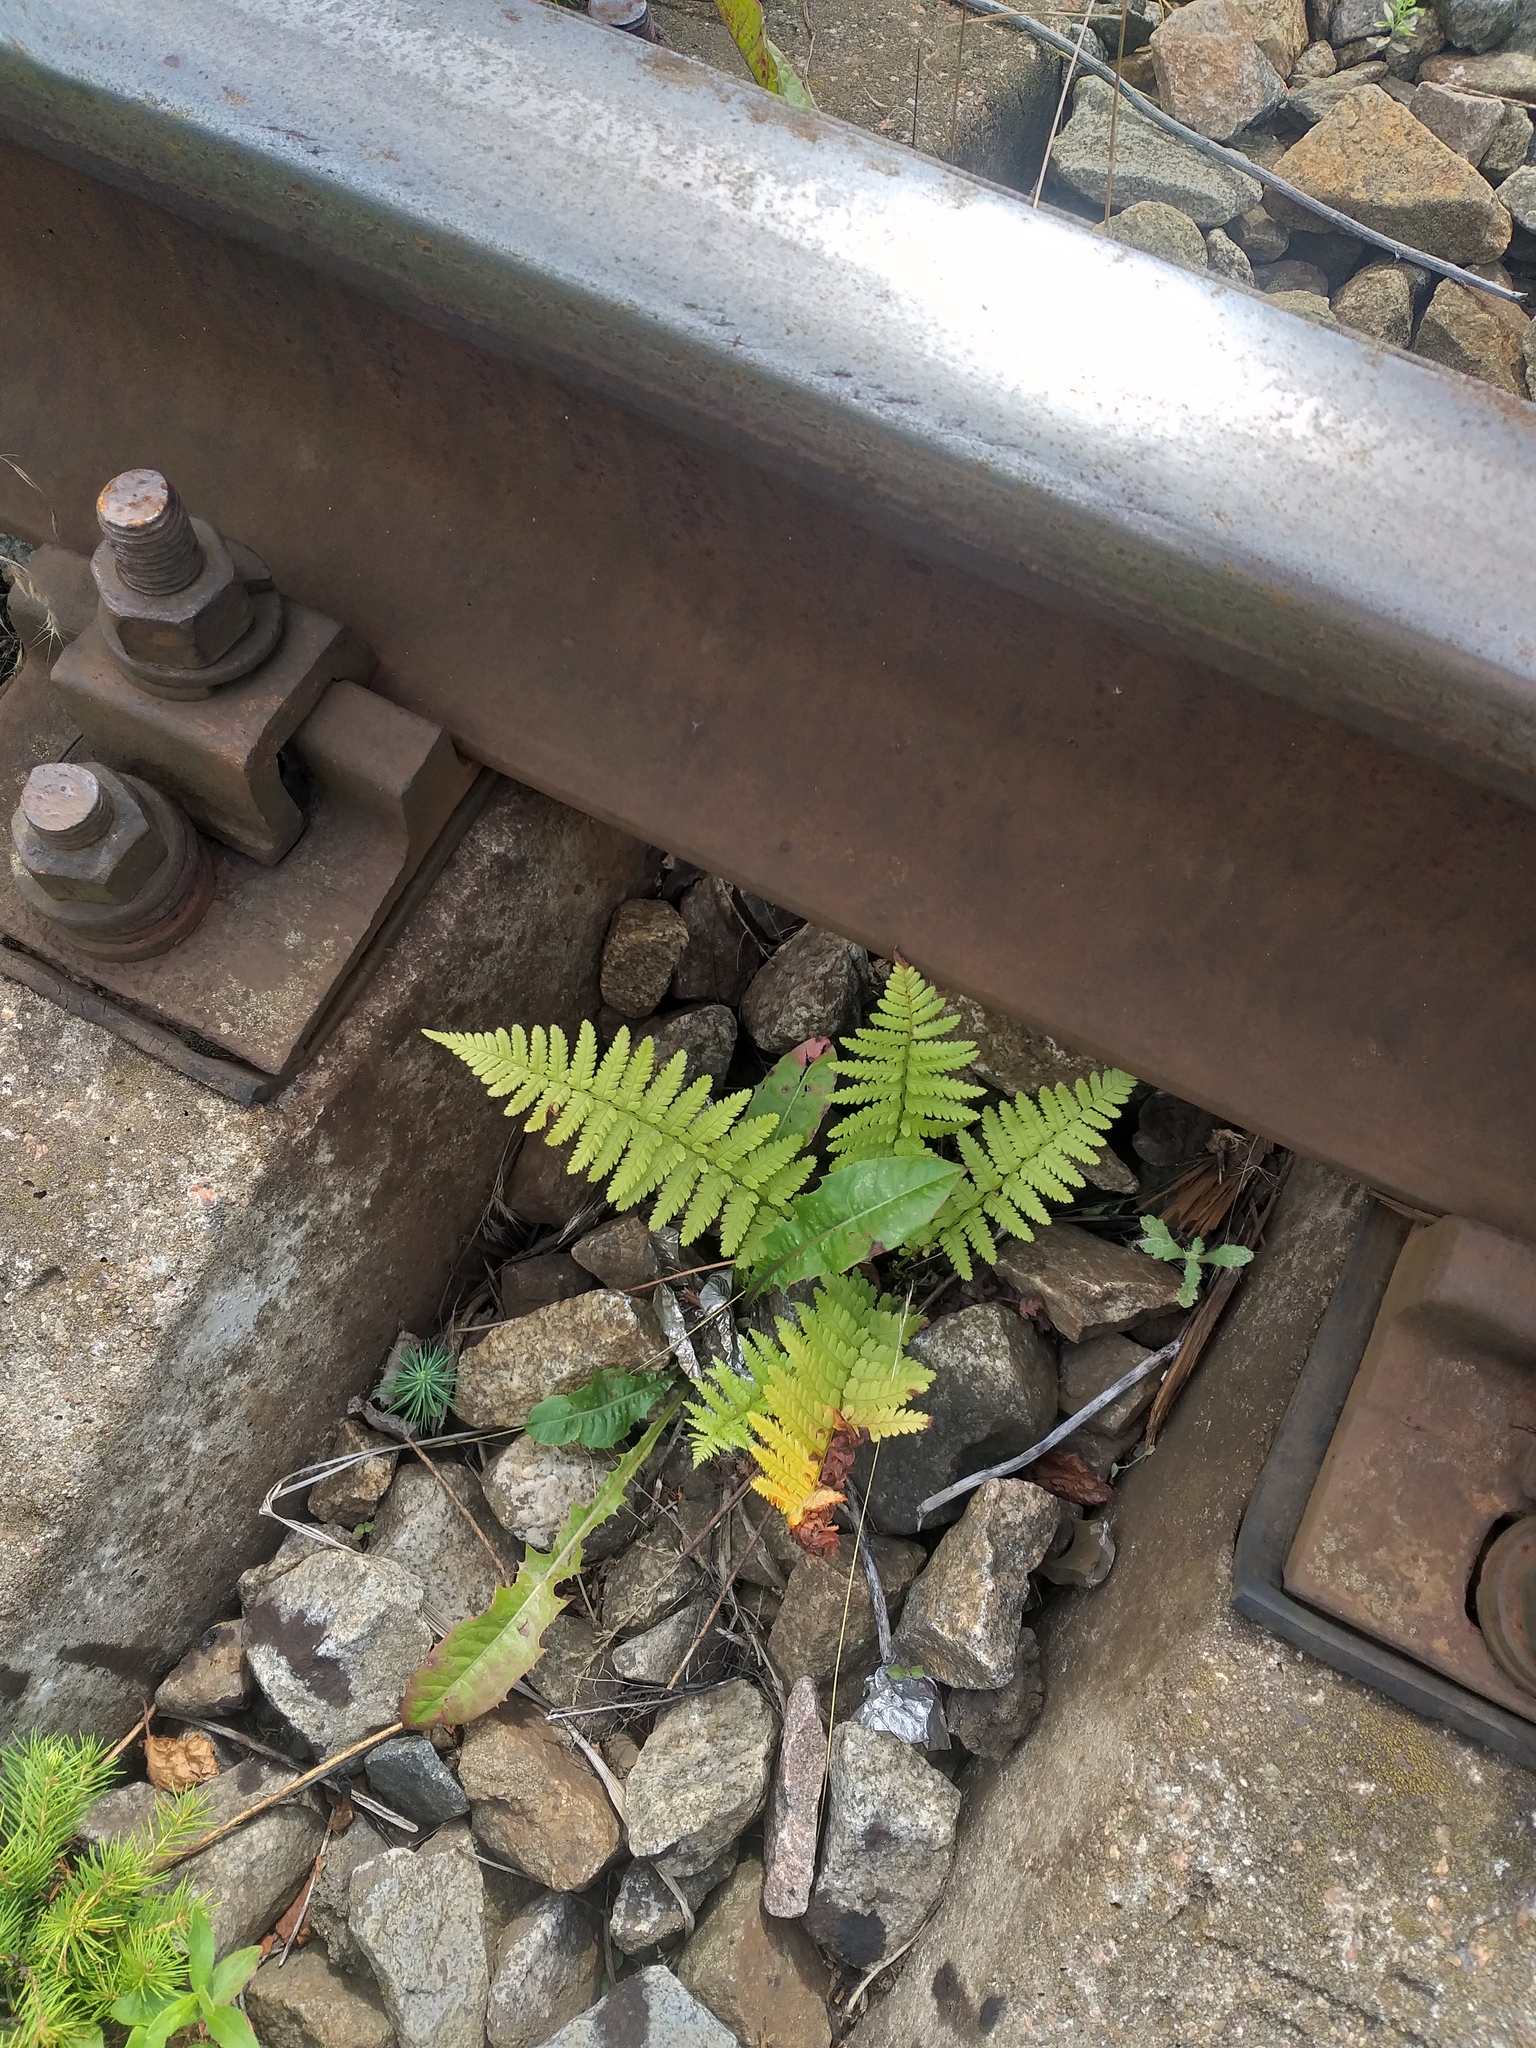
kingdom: Plantae
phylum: Tracheophyta
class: Polypodiopsida
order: Polypodiales
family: Dryopteridaceae
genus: Dryopteris
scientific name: Dryopteris filix-mas
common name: Male fern
